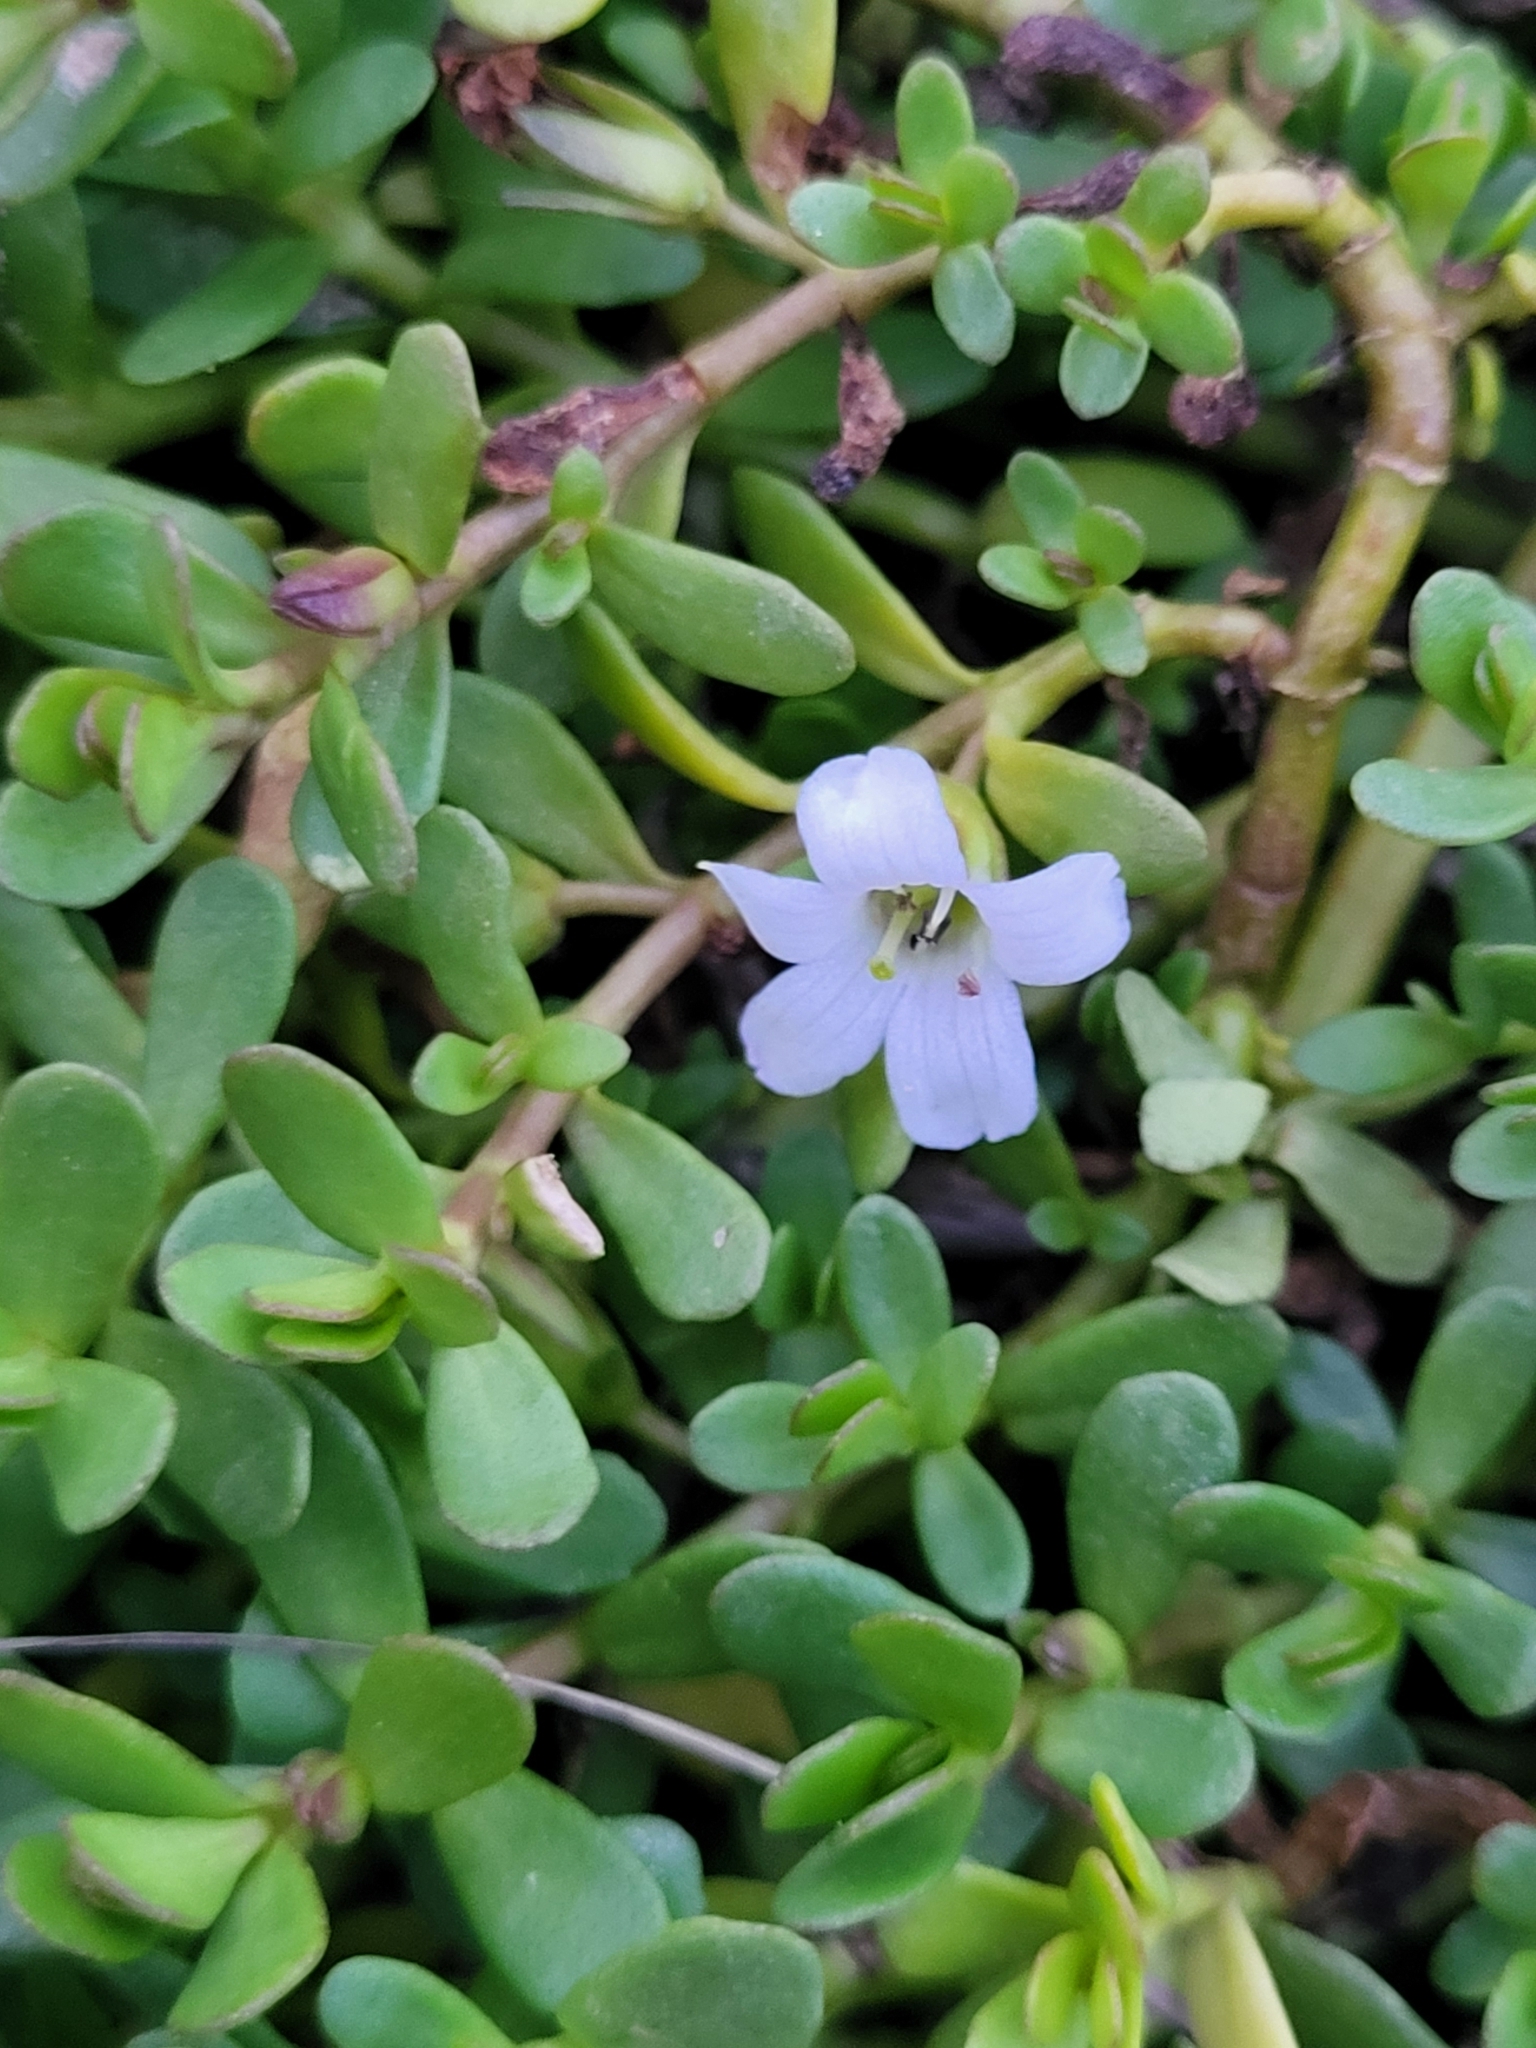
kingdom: Plantae
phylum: Tracheophyta
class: Magnoliopsida
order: Lamiales
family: Plantaginaceae
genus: Bacopa
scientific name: Bacopa monnieri
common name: Indian-pennywort
